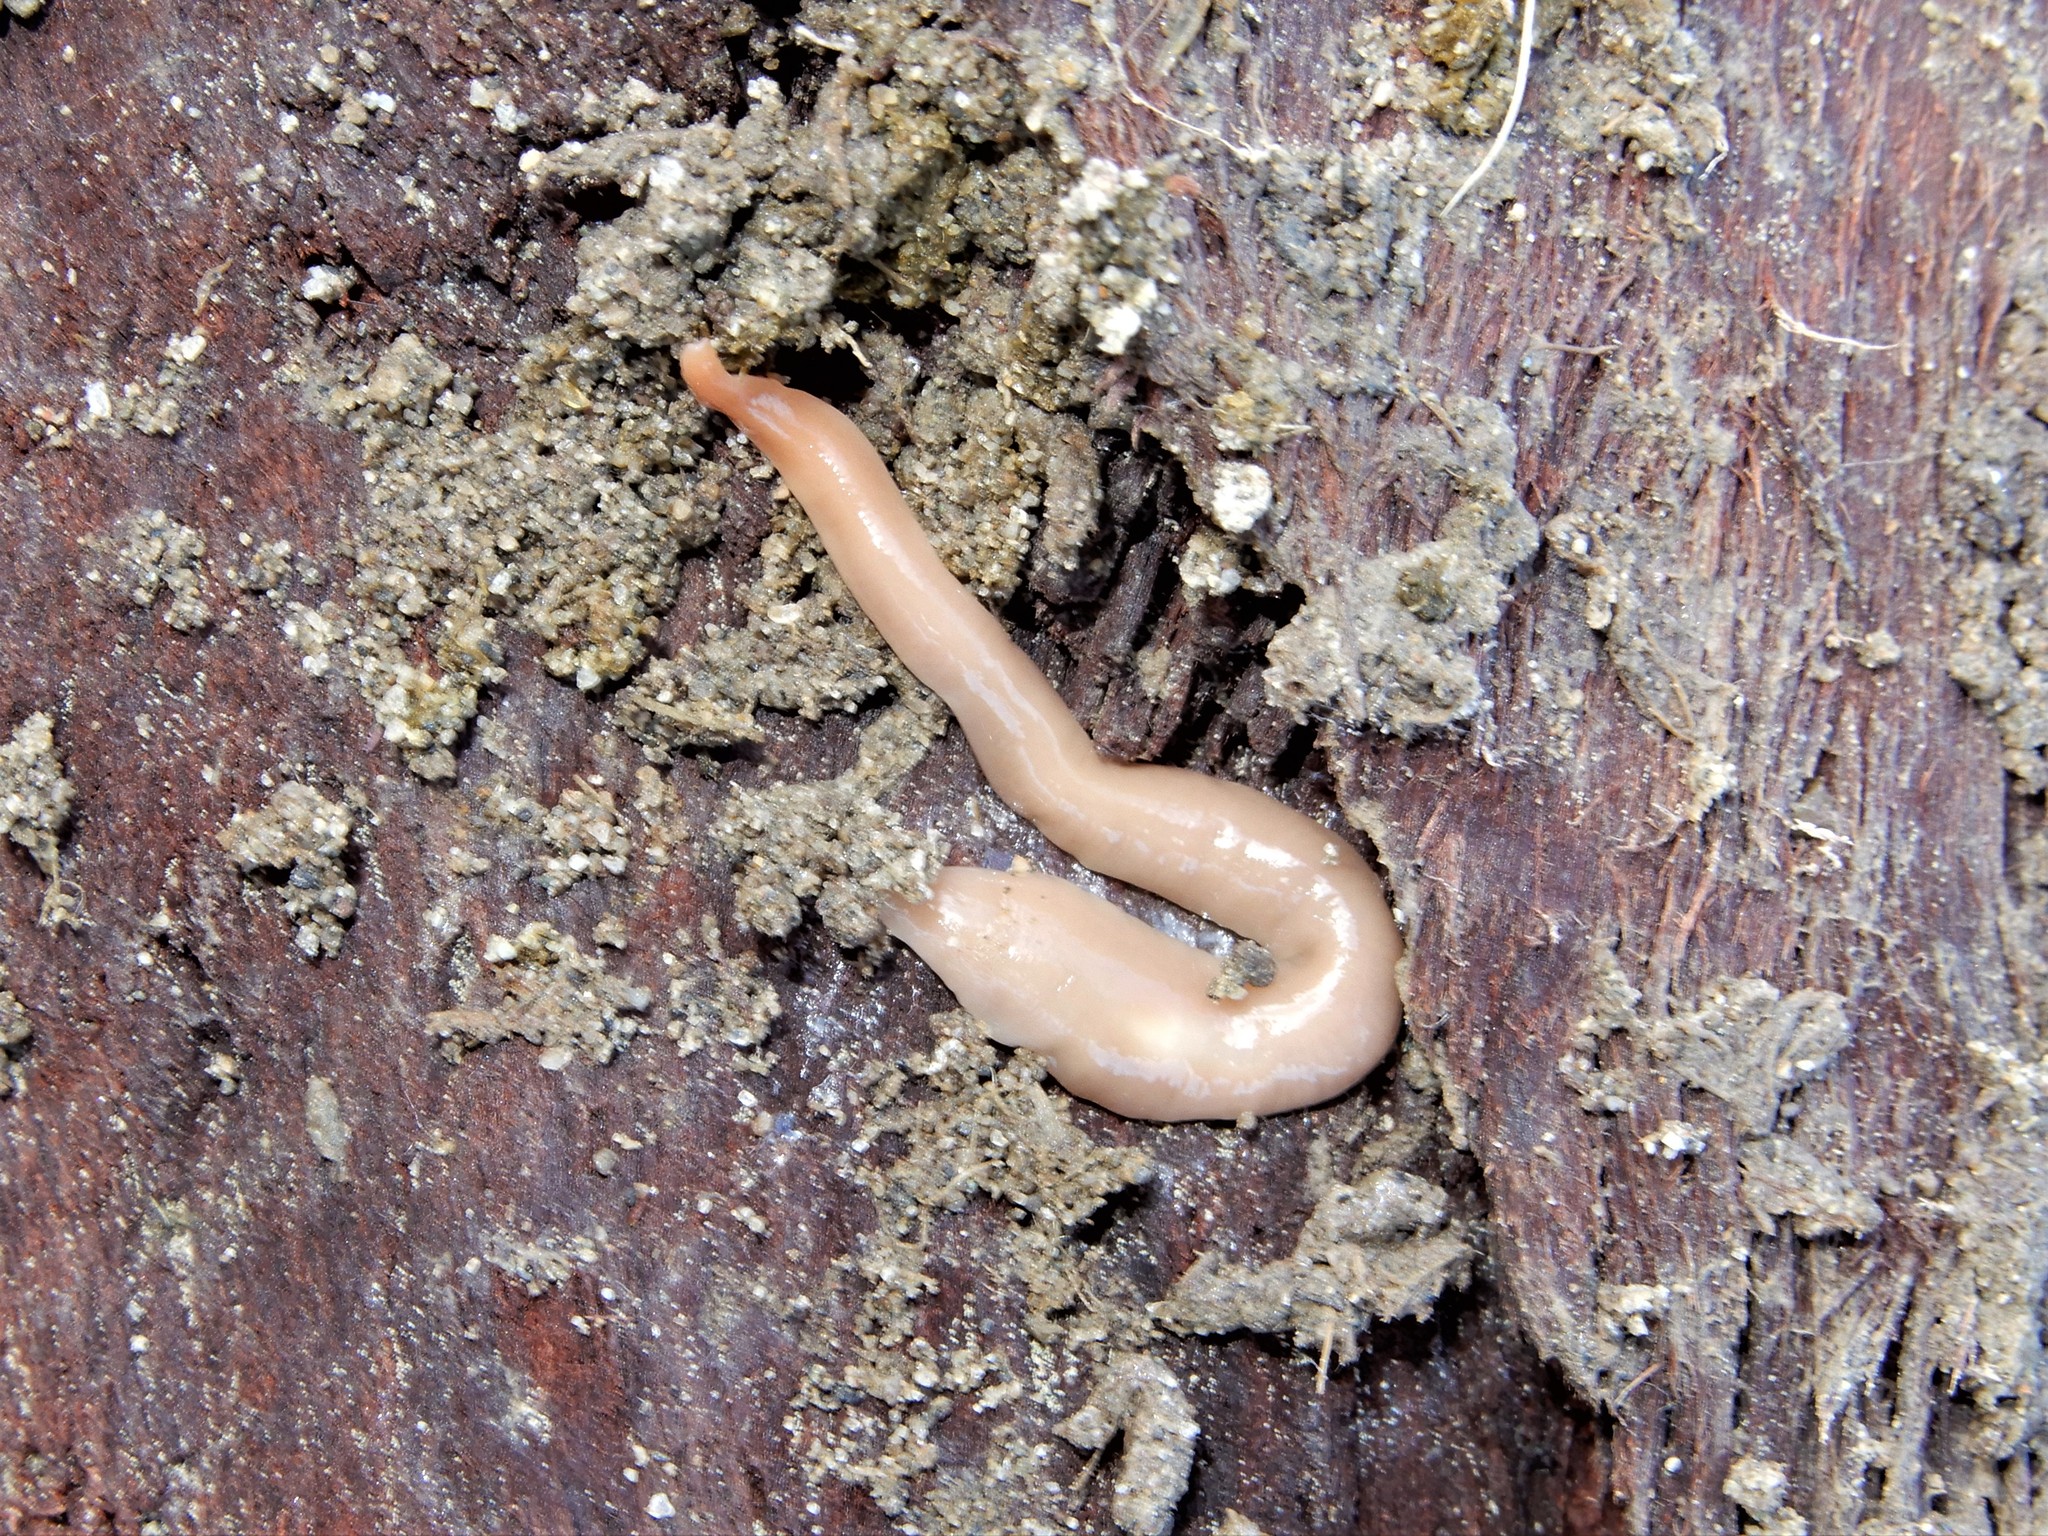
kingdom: Animalia
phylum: Platyhelminthes
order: Tricladida
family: Geoplanidae
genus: Australoplana
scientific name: Australoplana sanguinea
